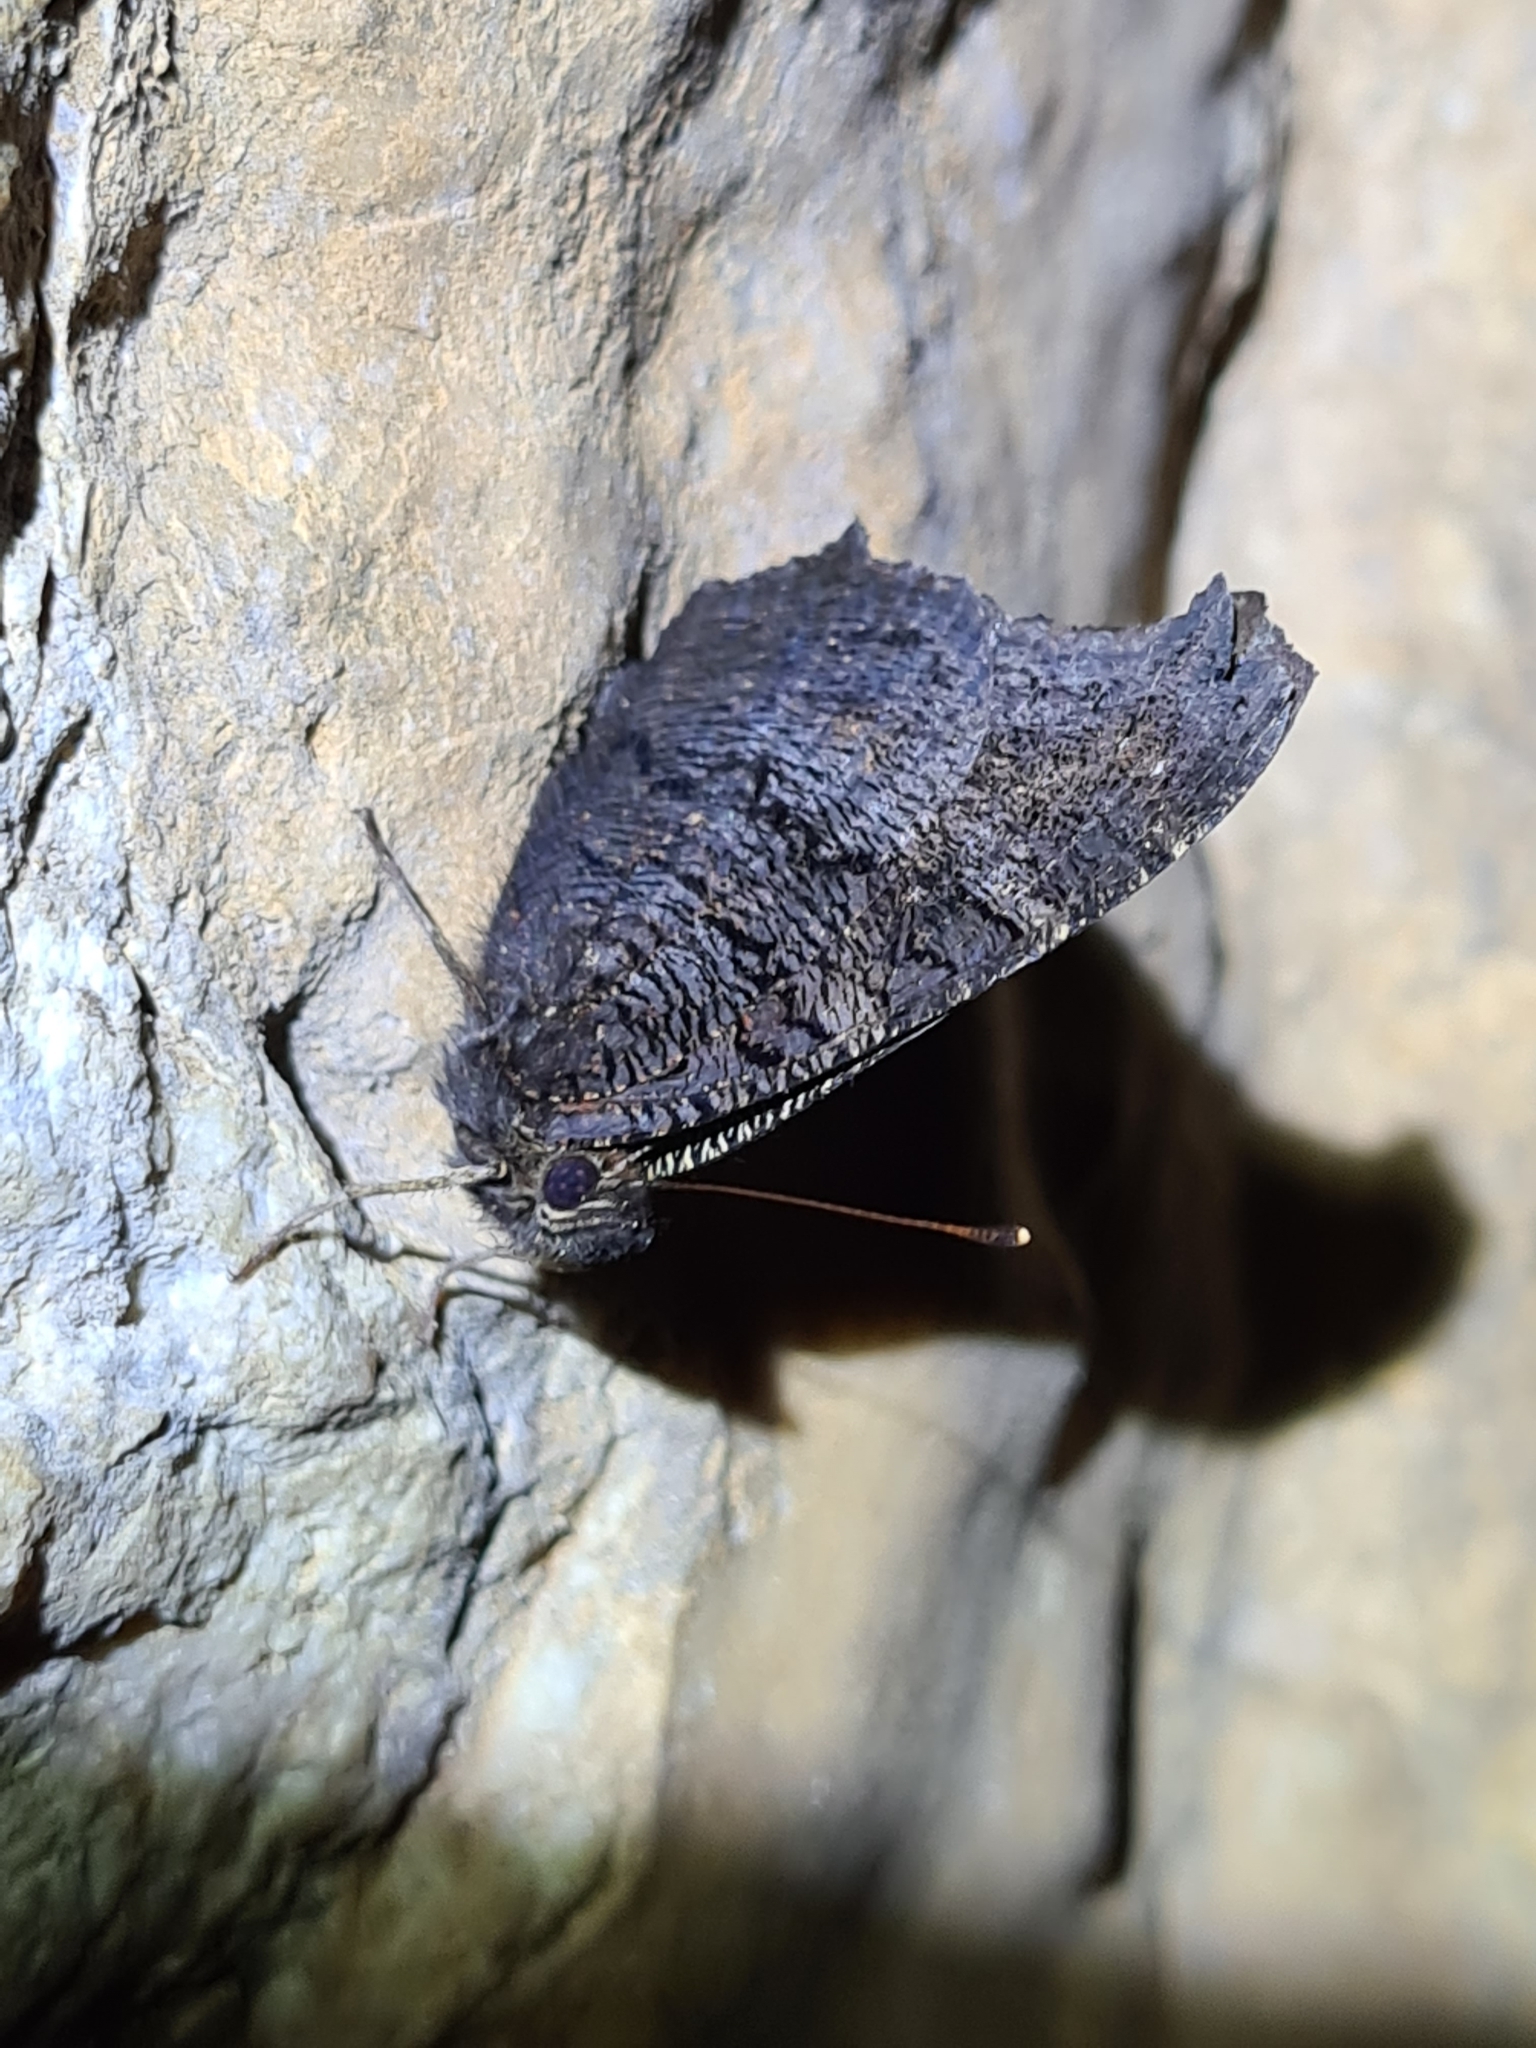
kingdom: Animalia
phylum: Arthropoda
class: Insecta
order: Lepidoptera
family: Nymphalidae
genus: Aglais
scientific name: Aglais io
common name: Peacock
